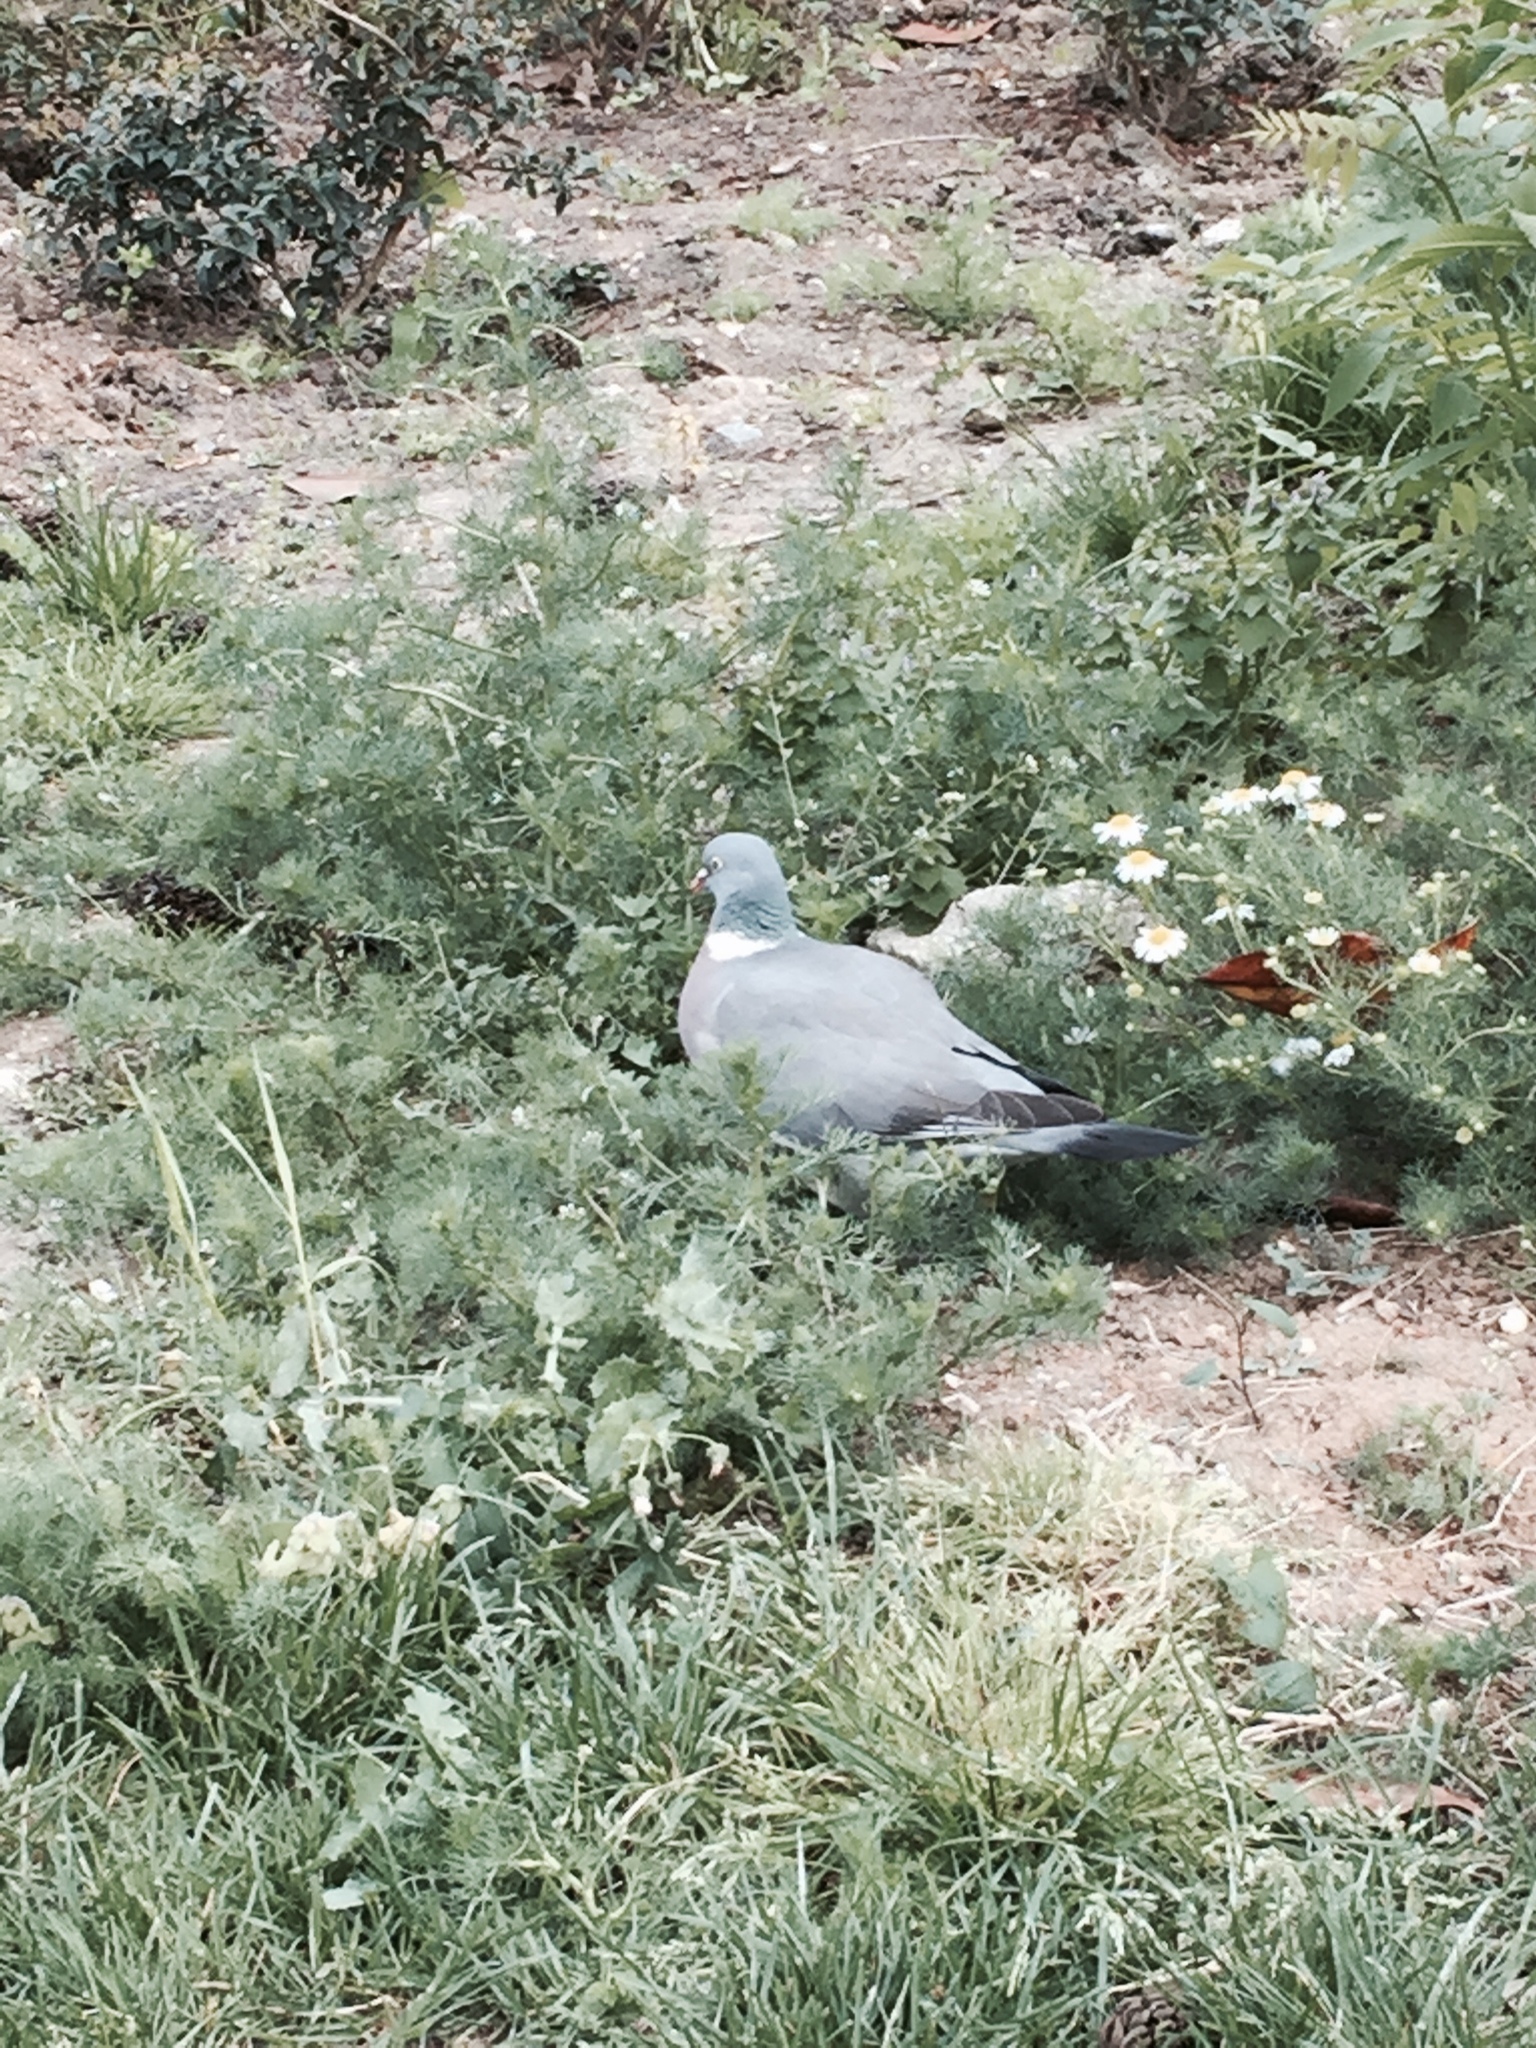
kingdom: Animalia
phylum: Chordata
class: Aves
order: Columbiformes
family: Columbidae
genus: Columba
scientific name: Columba palumbus
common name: Common wood pigeon
